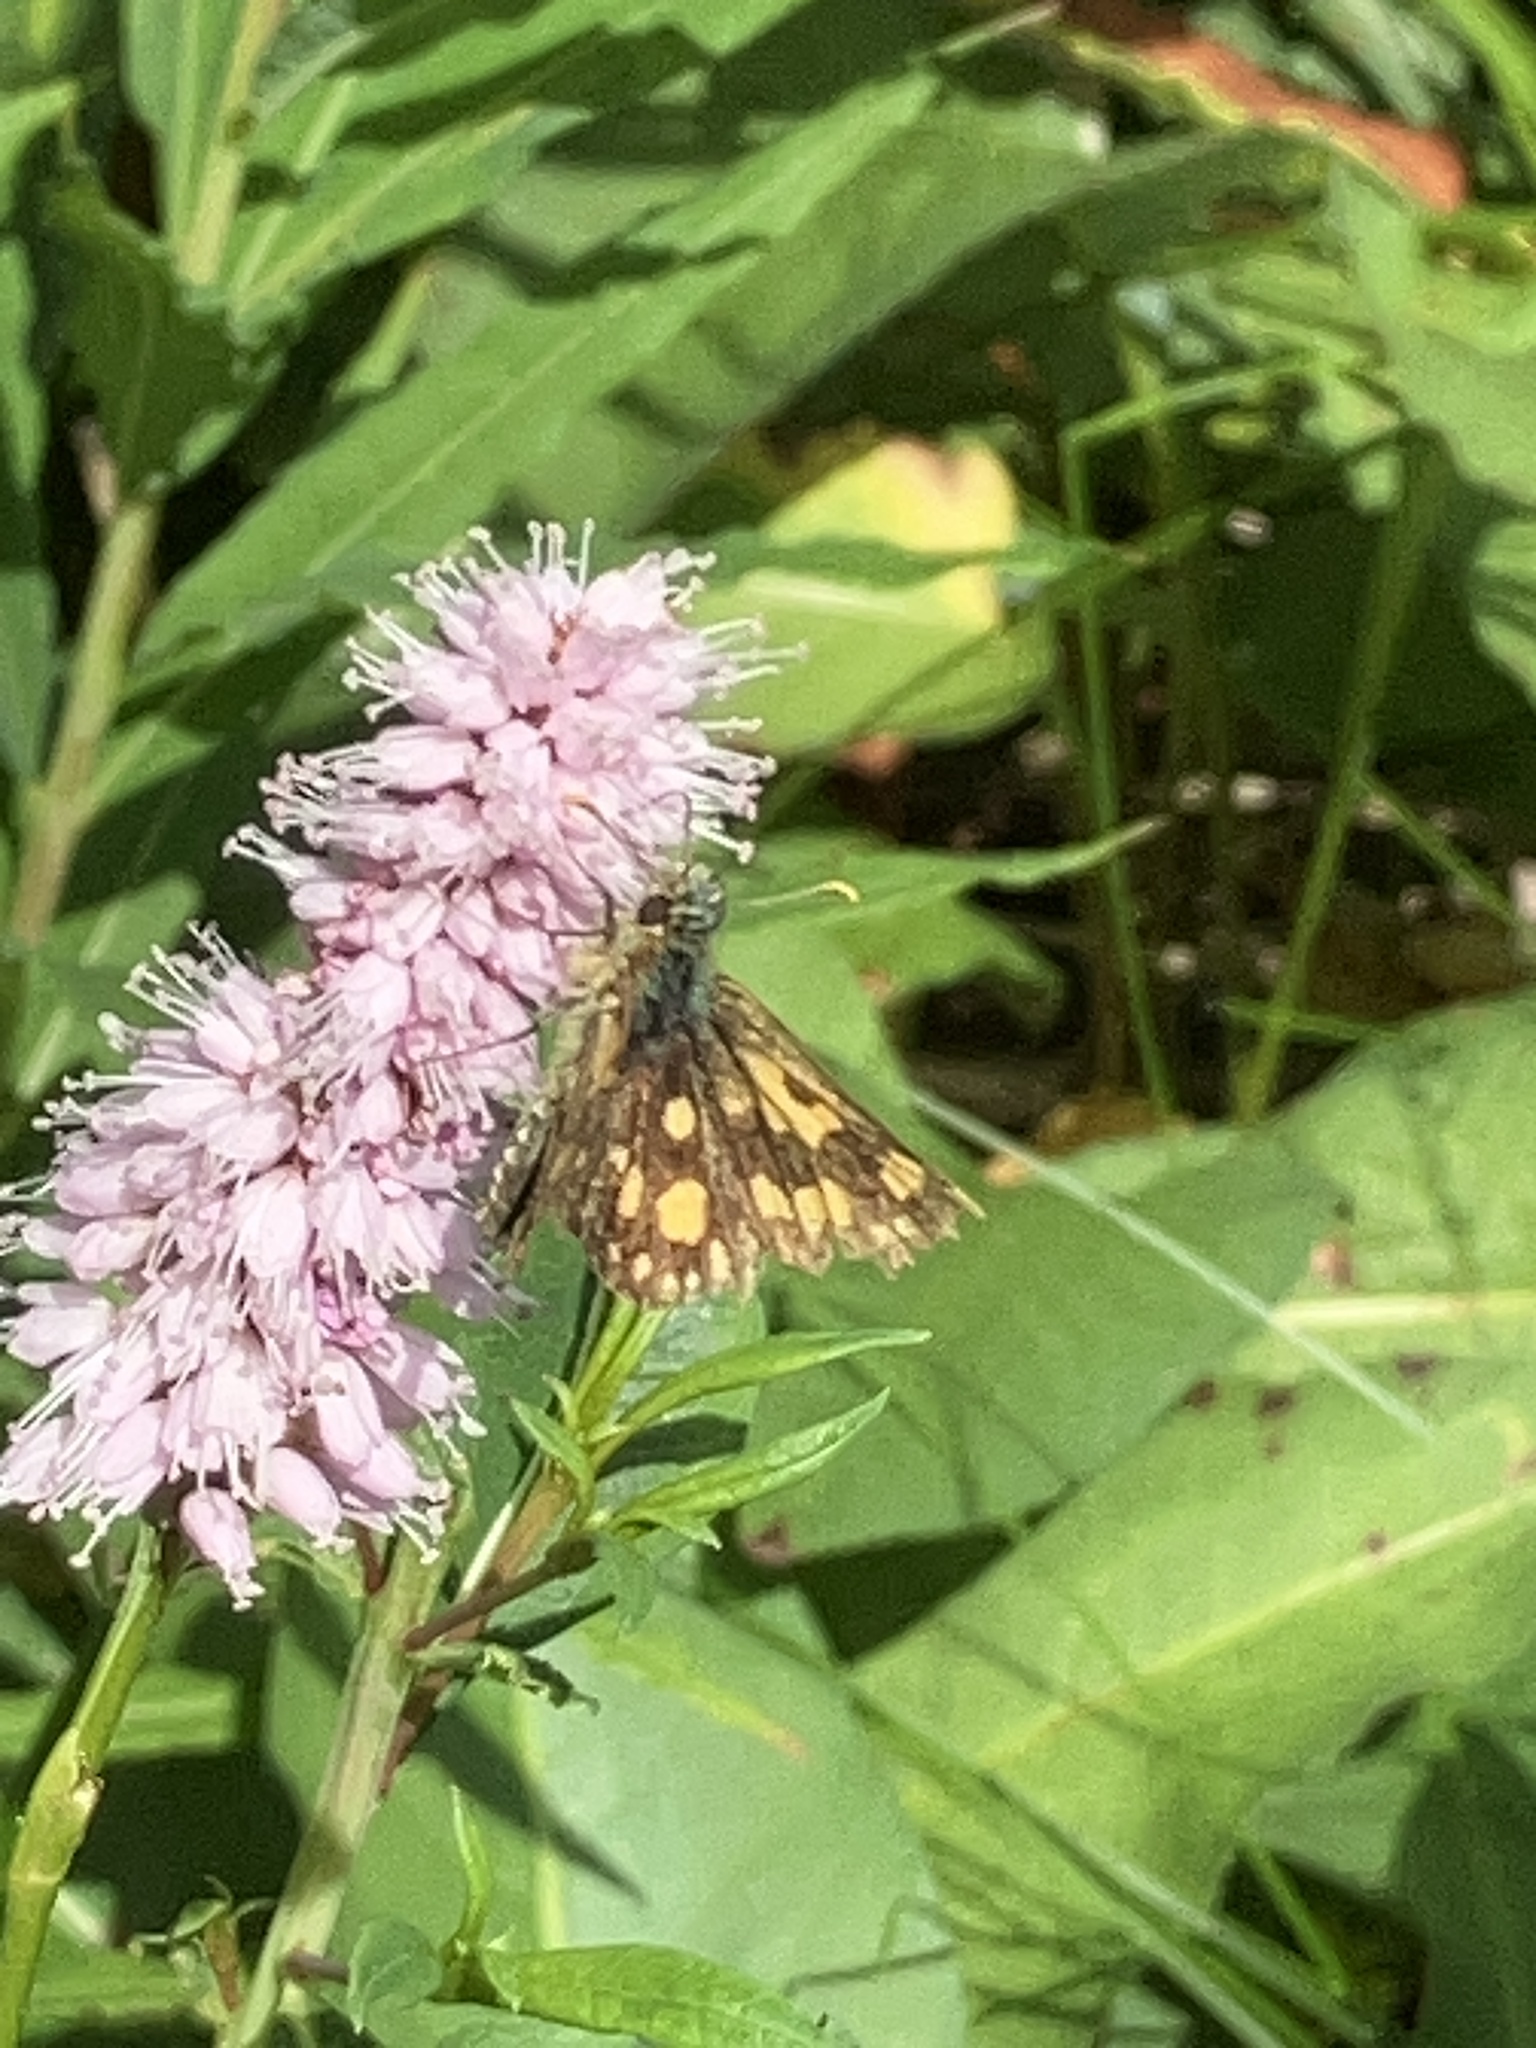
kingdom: Animalia
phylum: Arthropoda
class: Insecta
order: Lepidoptera
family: Hesperiidae
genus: Carterocephalus
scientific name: Carterocephalus palaemon
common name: Chequered skipper
